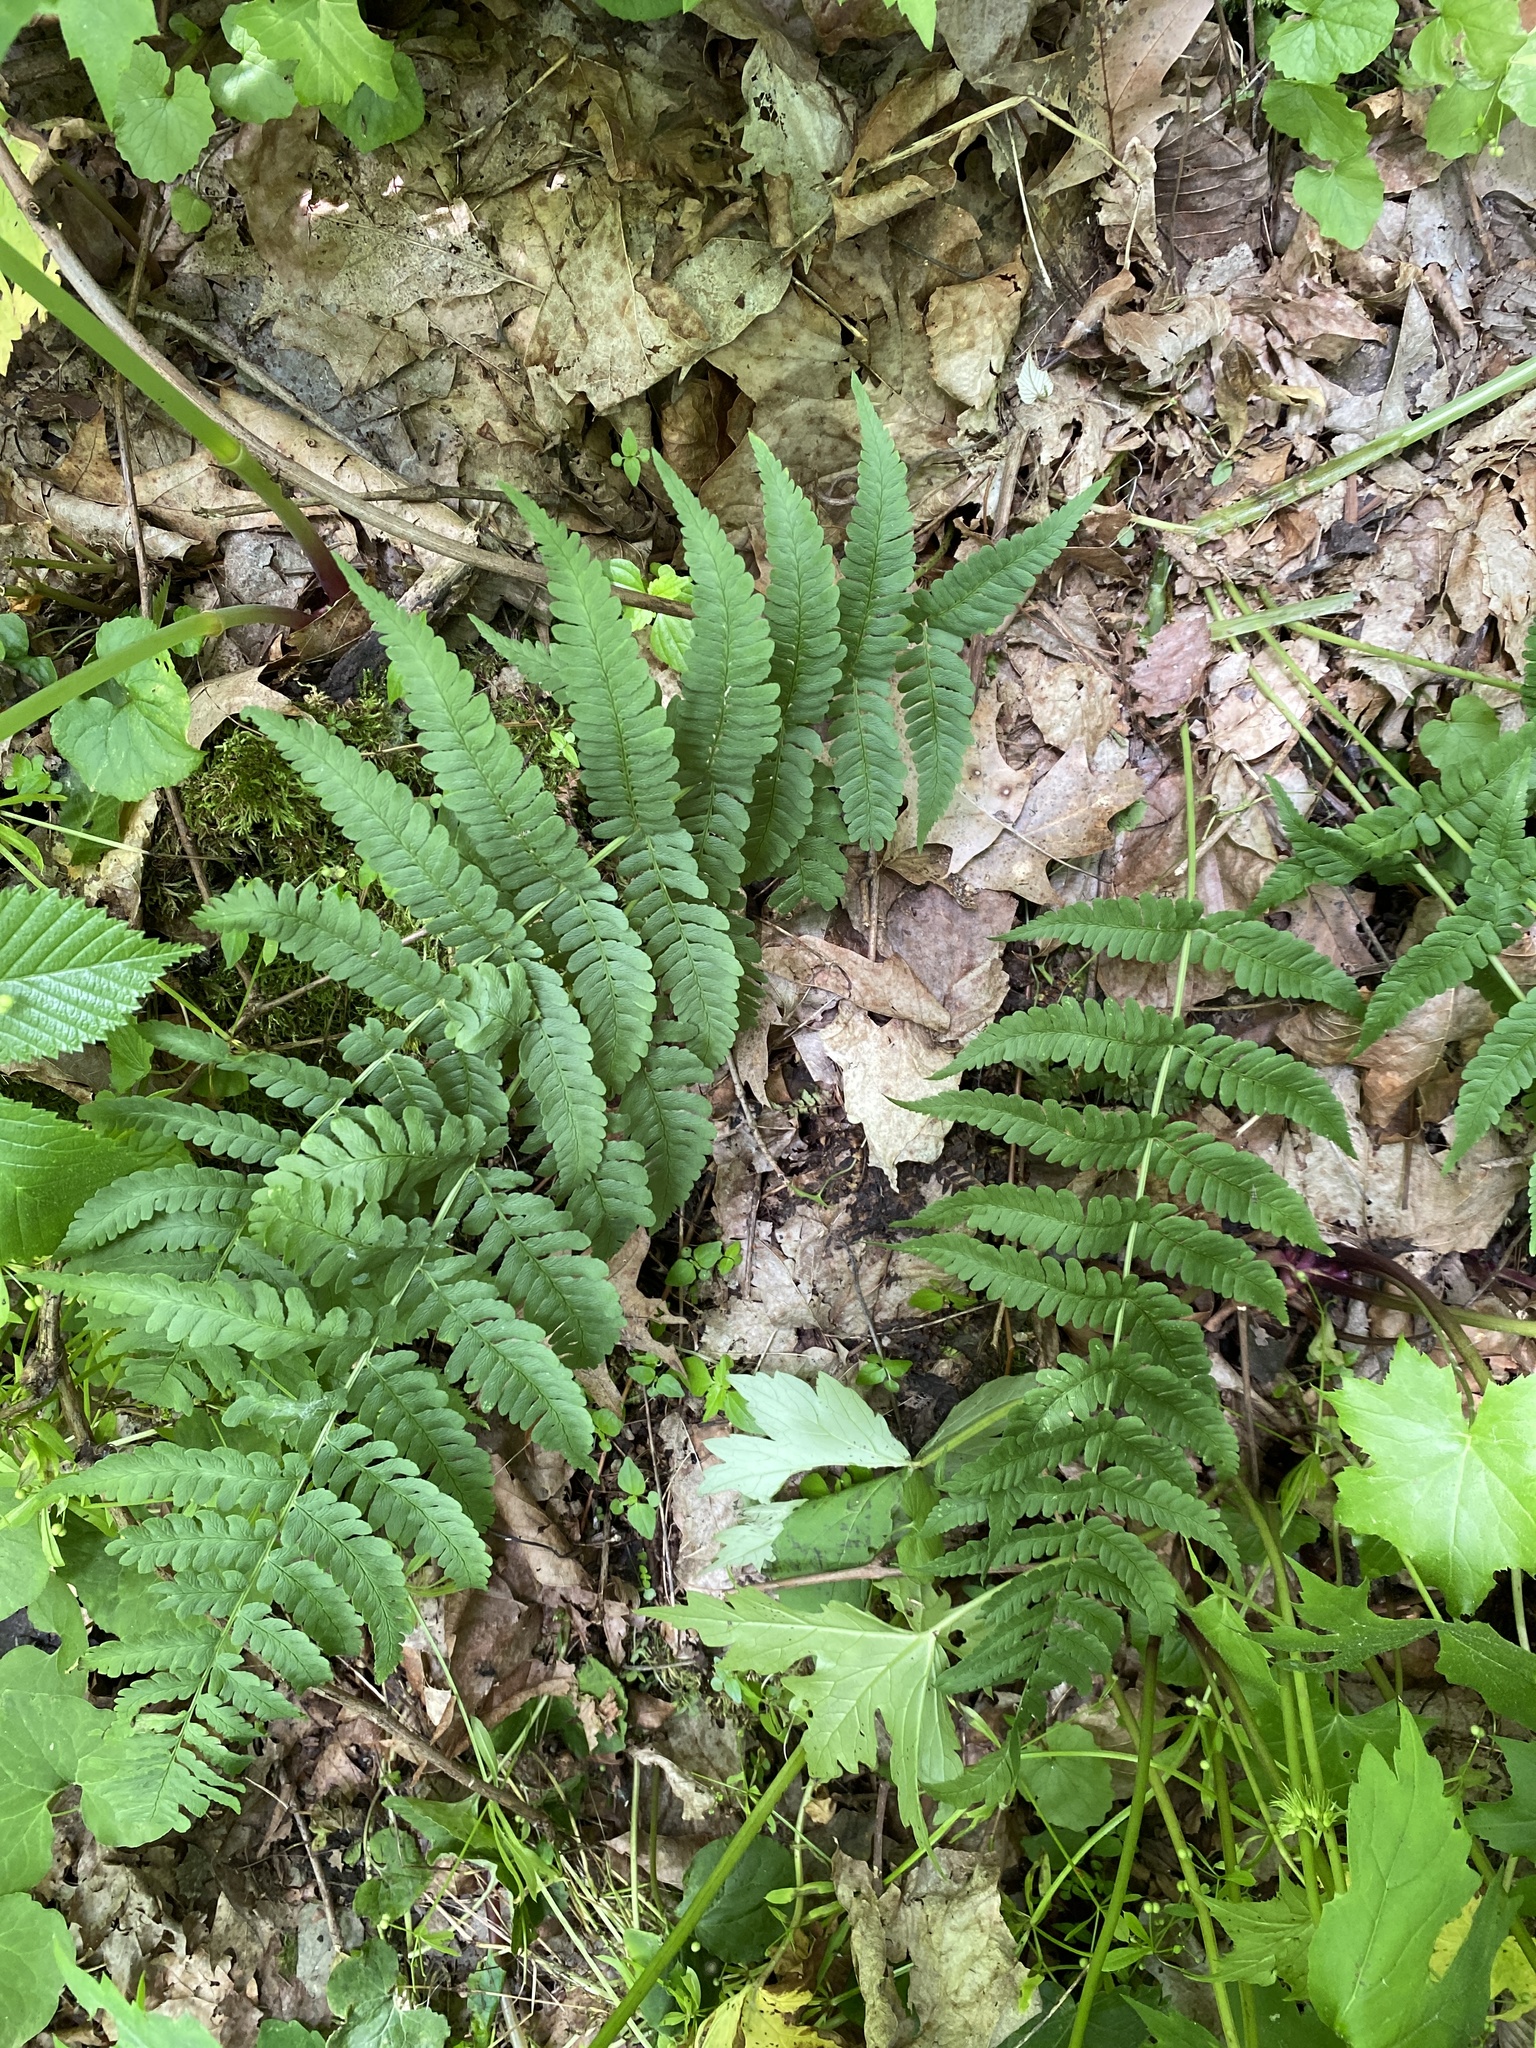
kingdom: Plantae
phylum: Tracheophyta
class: Polypodiopsida
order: Polypodiales
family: Dryopteridaceae
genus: Dryopteris
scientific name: Dryopteris marginalis
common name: Marginal wood fern
